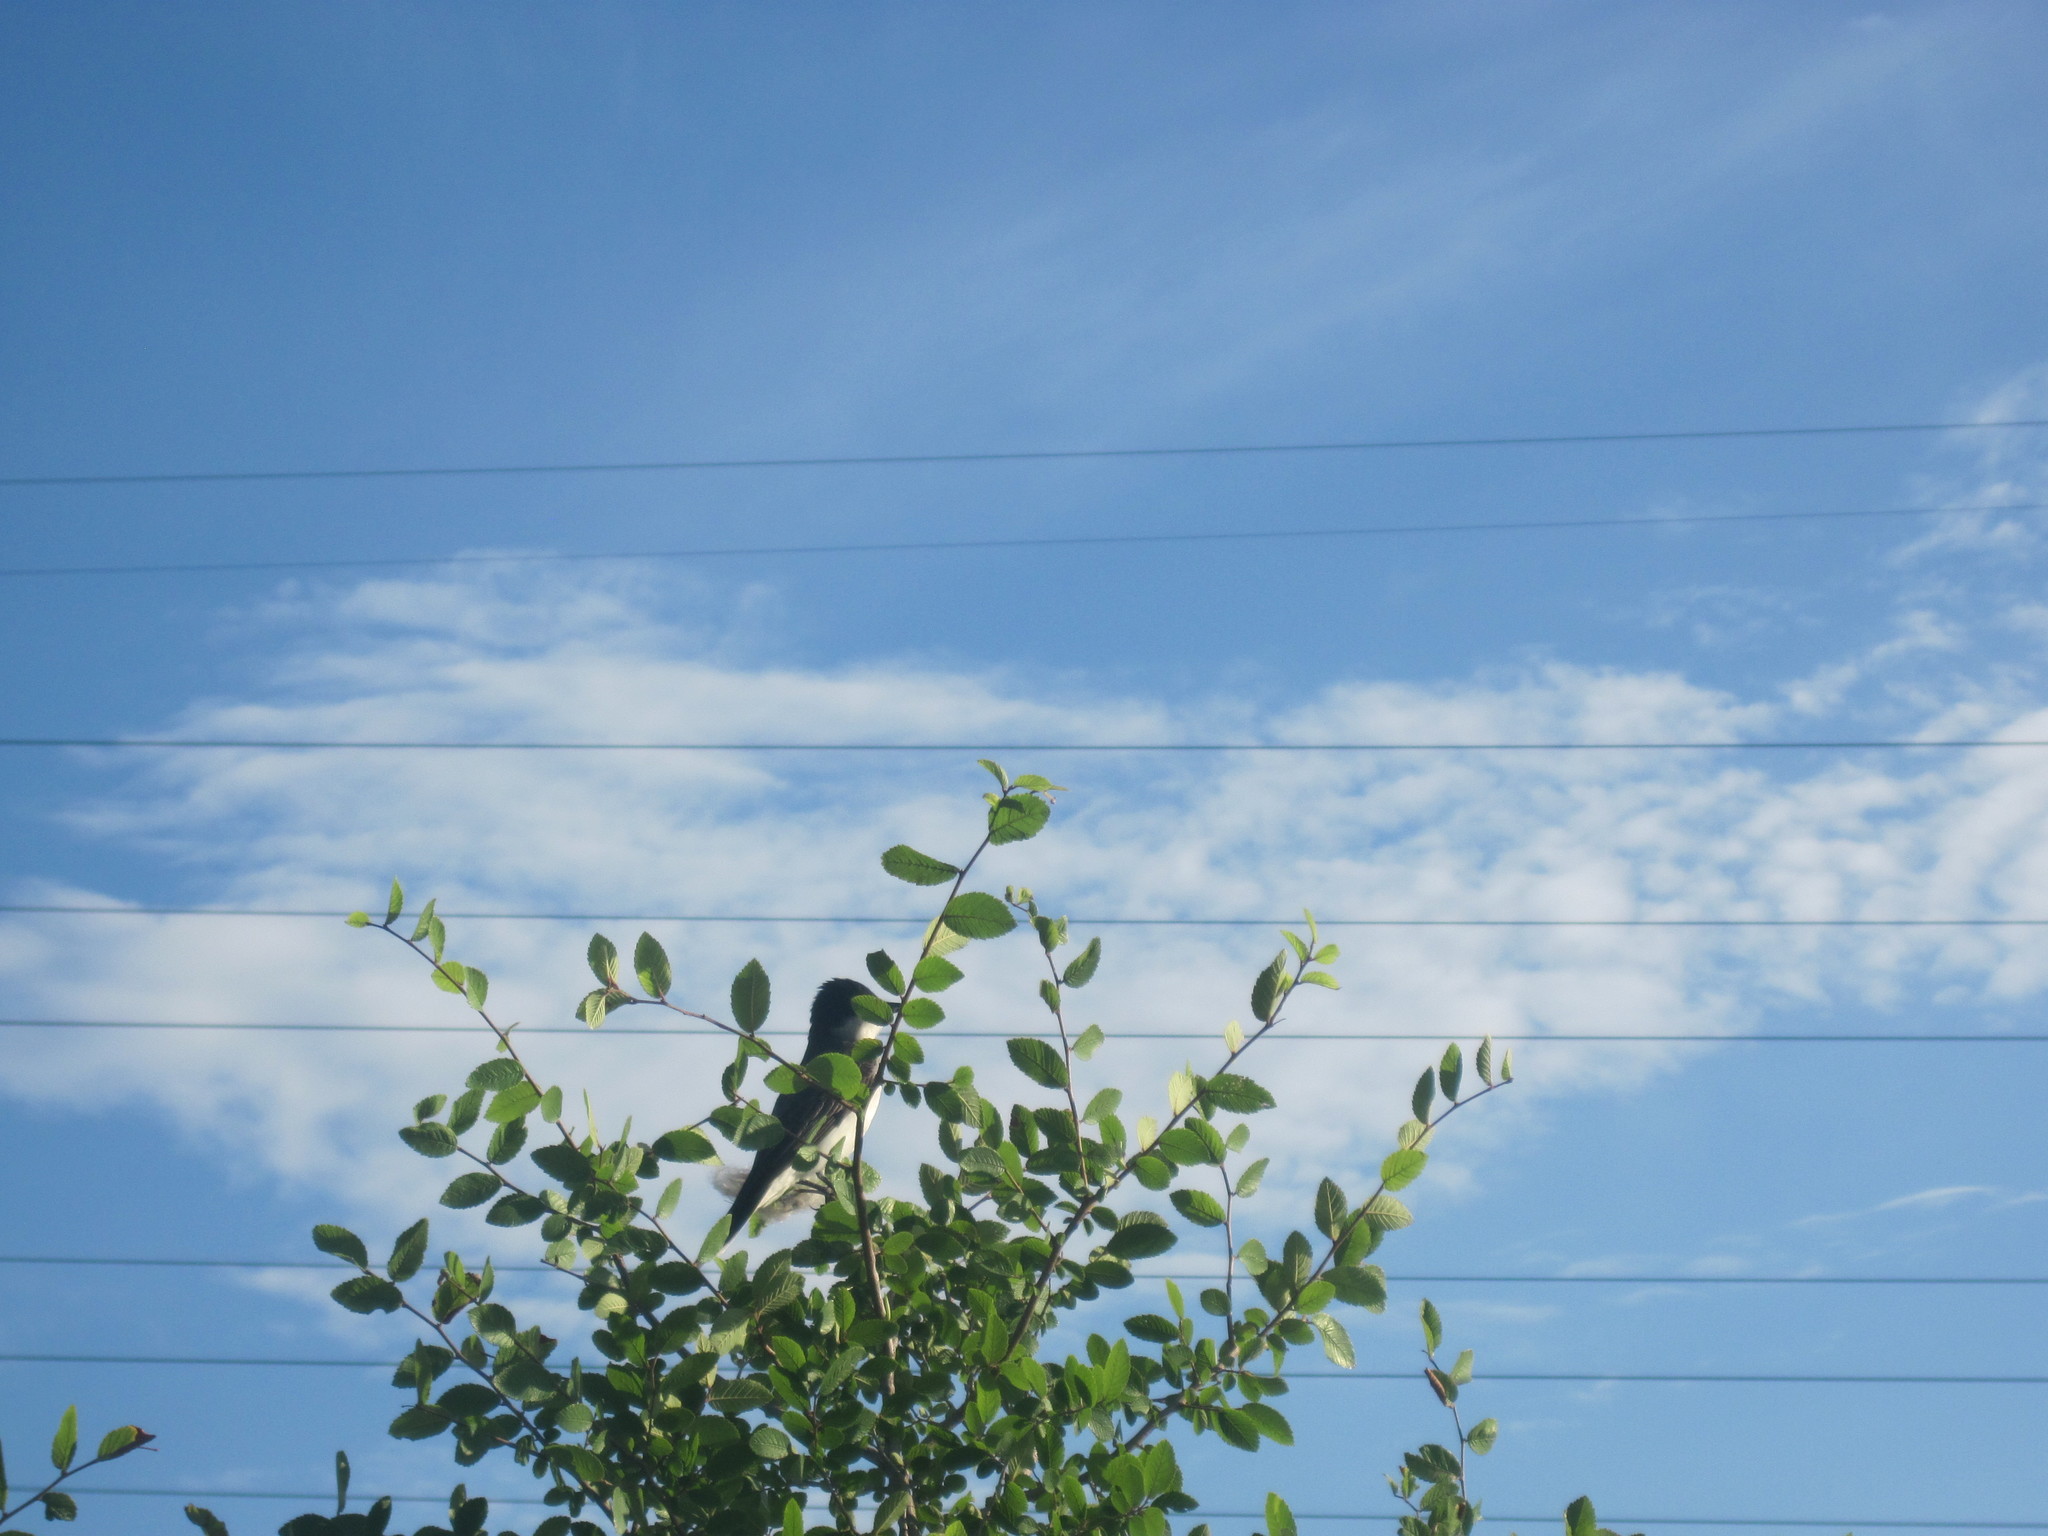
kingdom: Animalia
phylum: Chordata
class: Aves
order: Passeriformes
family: Tyrannidae
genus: Tyrannus
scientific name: Tyrannus tyrannus
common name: Eastern kingbird
